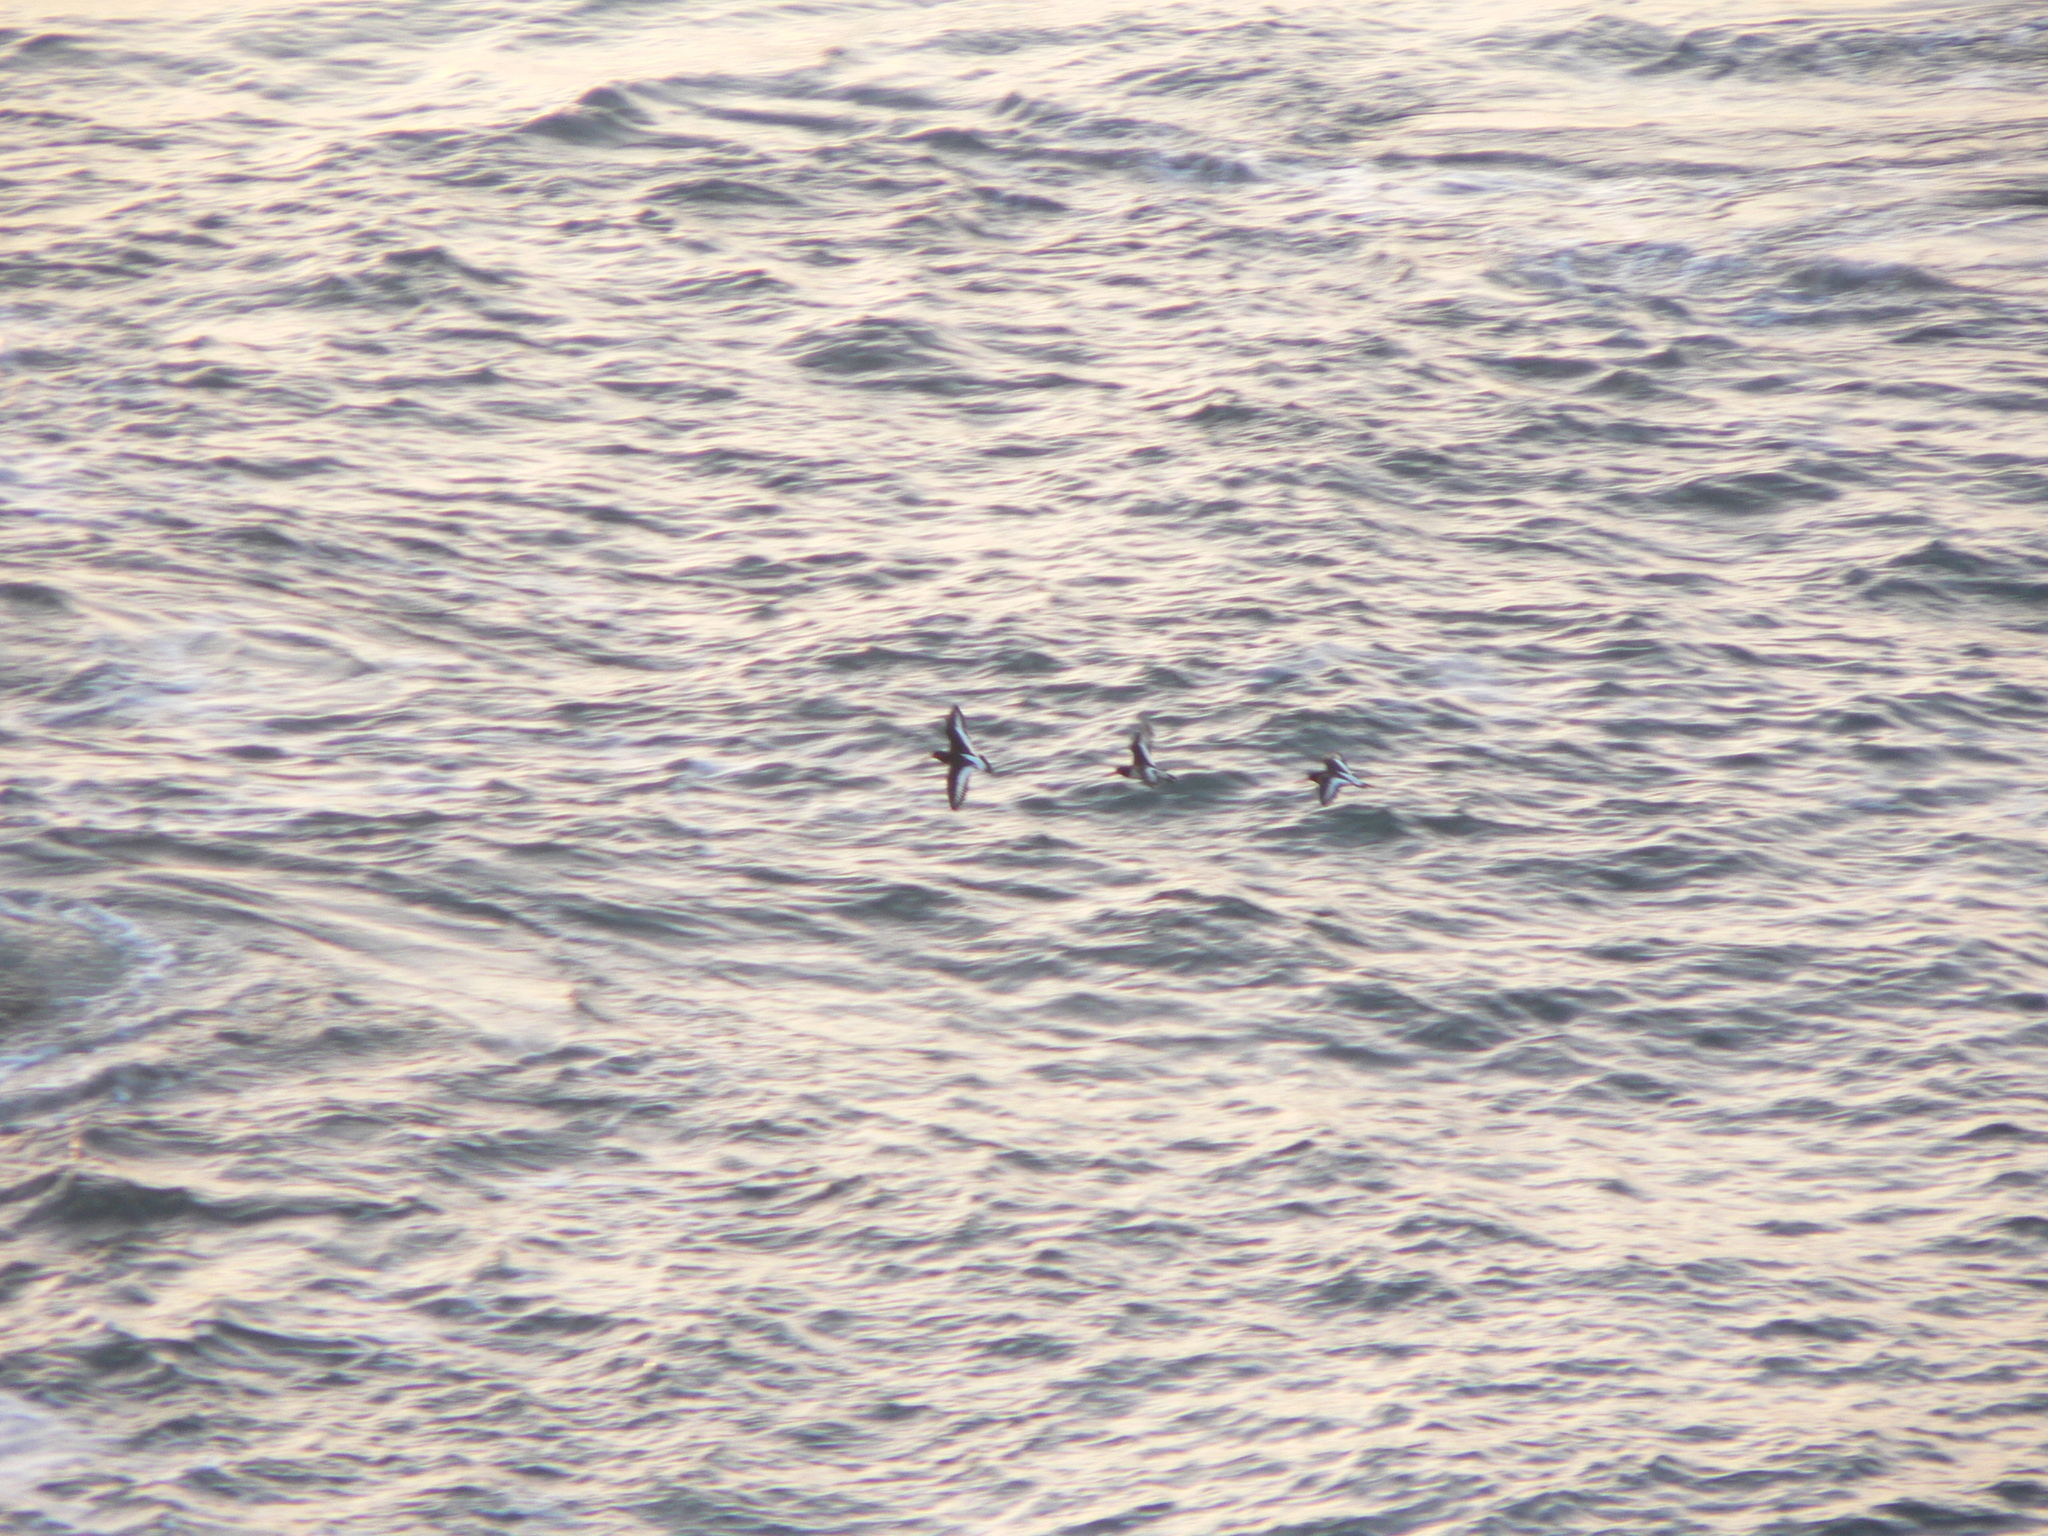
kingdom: Animalia
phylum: Chordata
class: Aves
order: Charadriiformes
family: Haematopodidae
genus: Haematopus
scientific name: Haematopus ostralegus
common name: Eurasian oystercatcher
